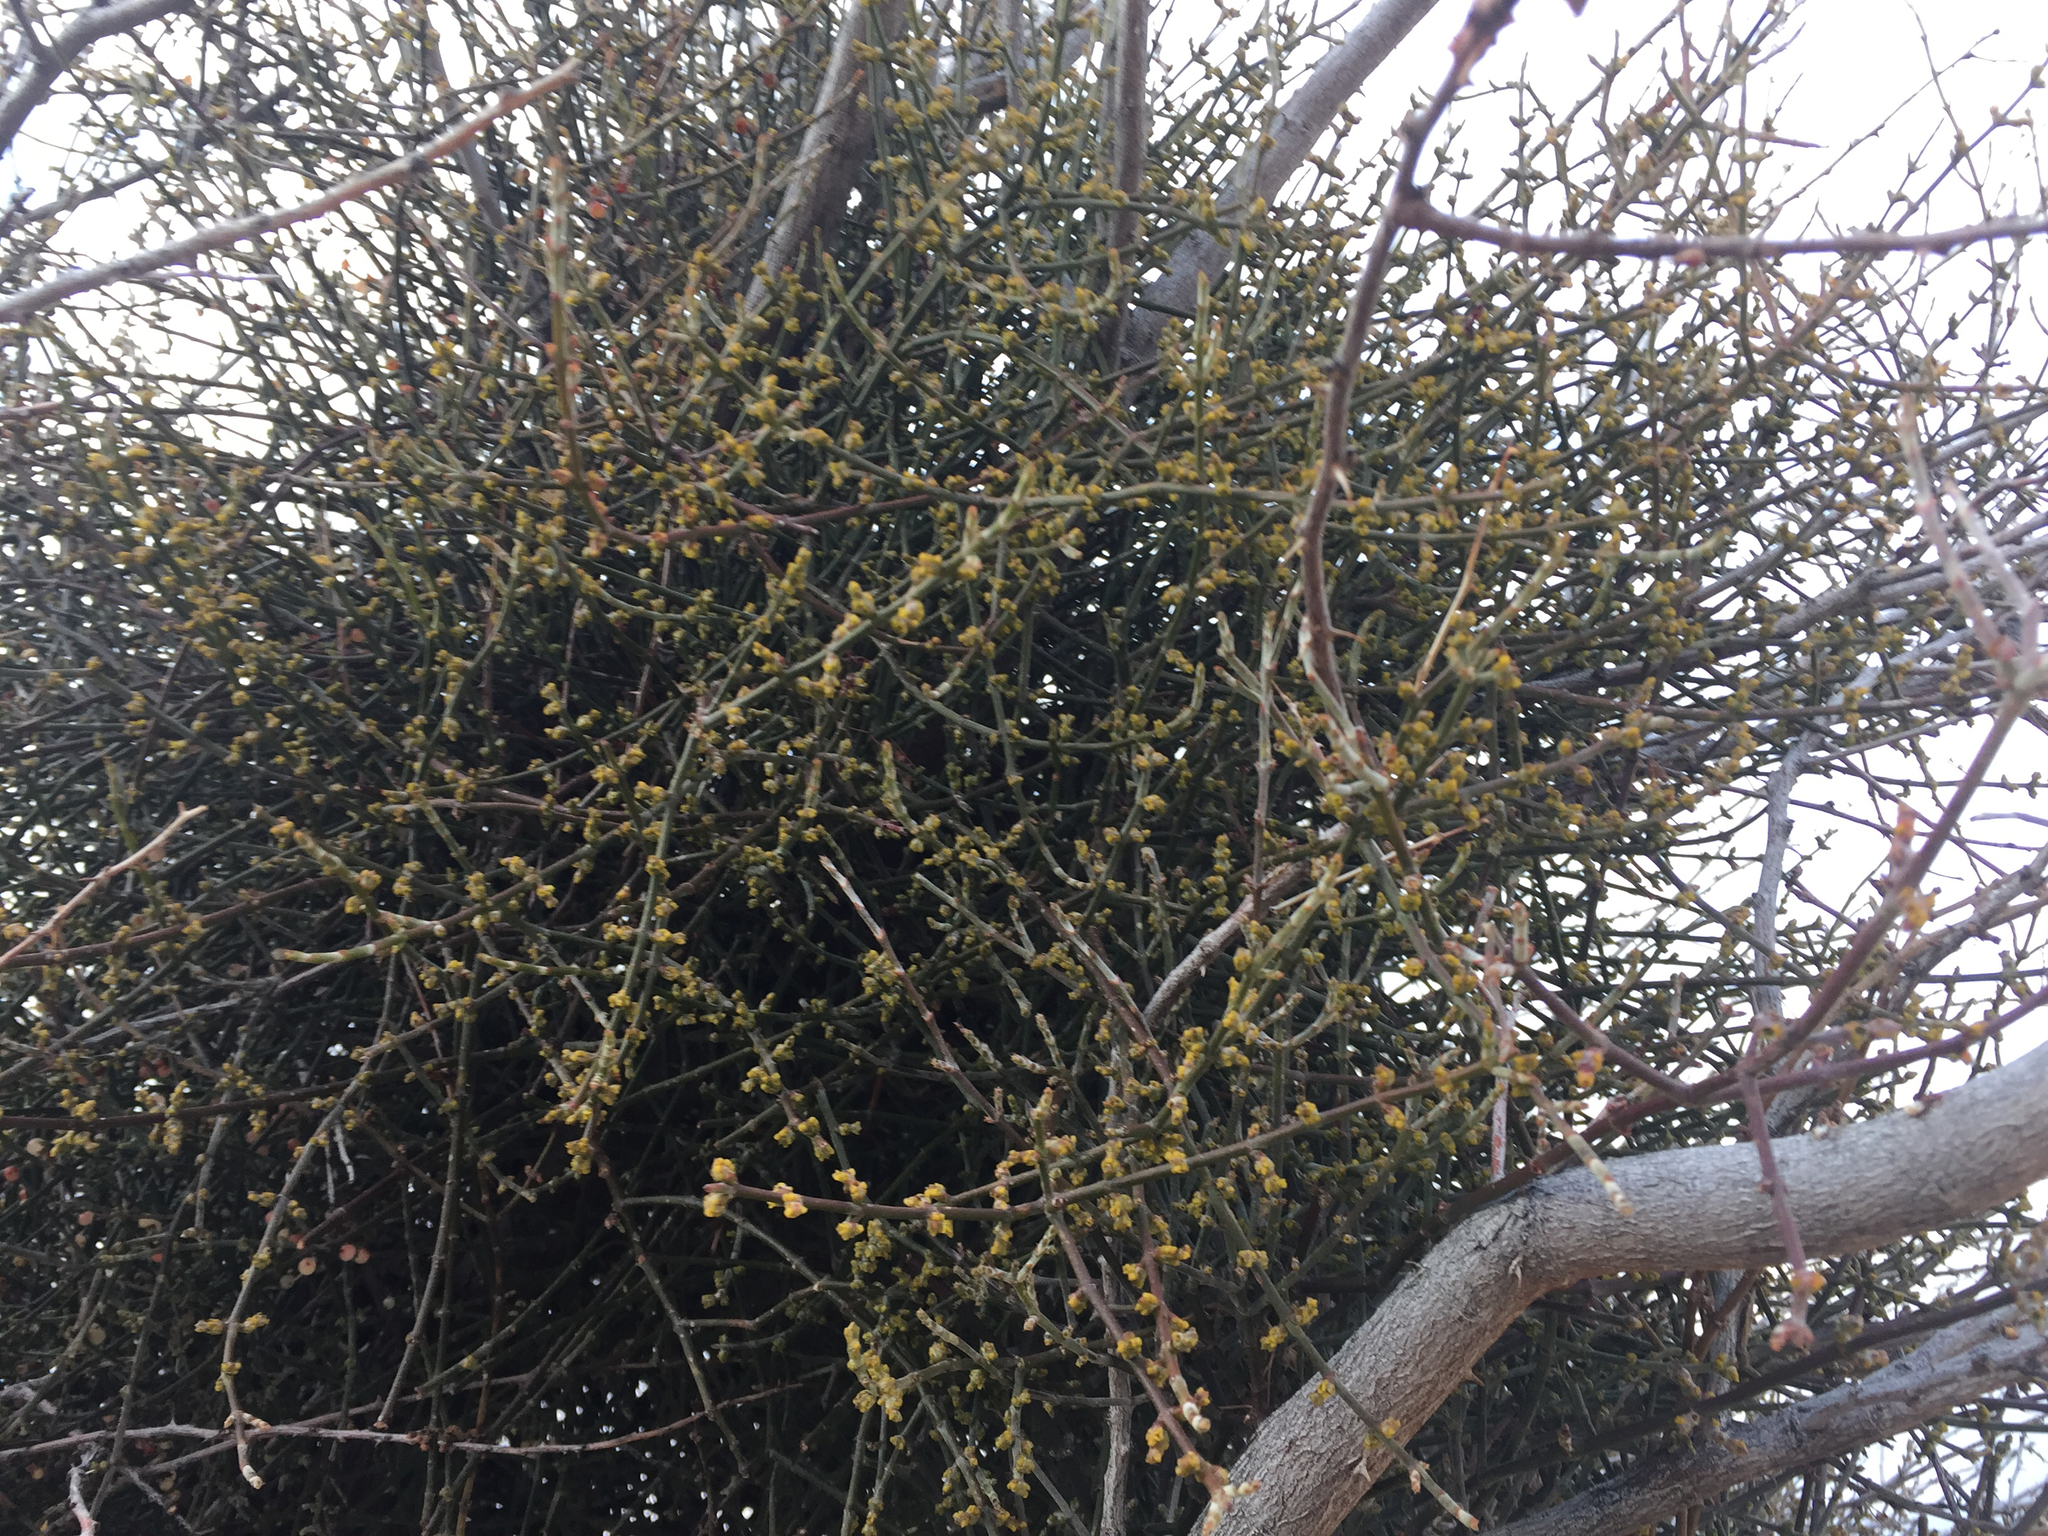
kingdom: Plantae
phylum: Tracheophyta
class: Magnoliopsida
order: Santalales
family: Viscaceae
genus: Phoradendron
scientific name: Phoradendron californicum
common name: Acacia mistletoe
